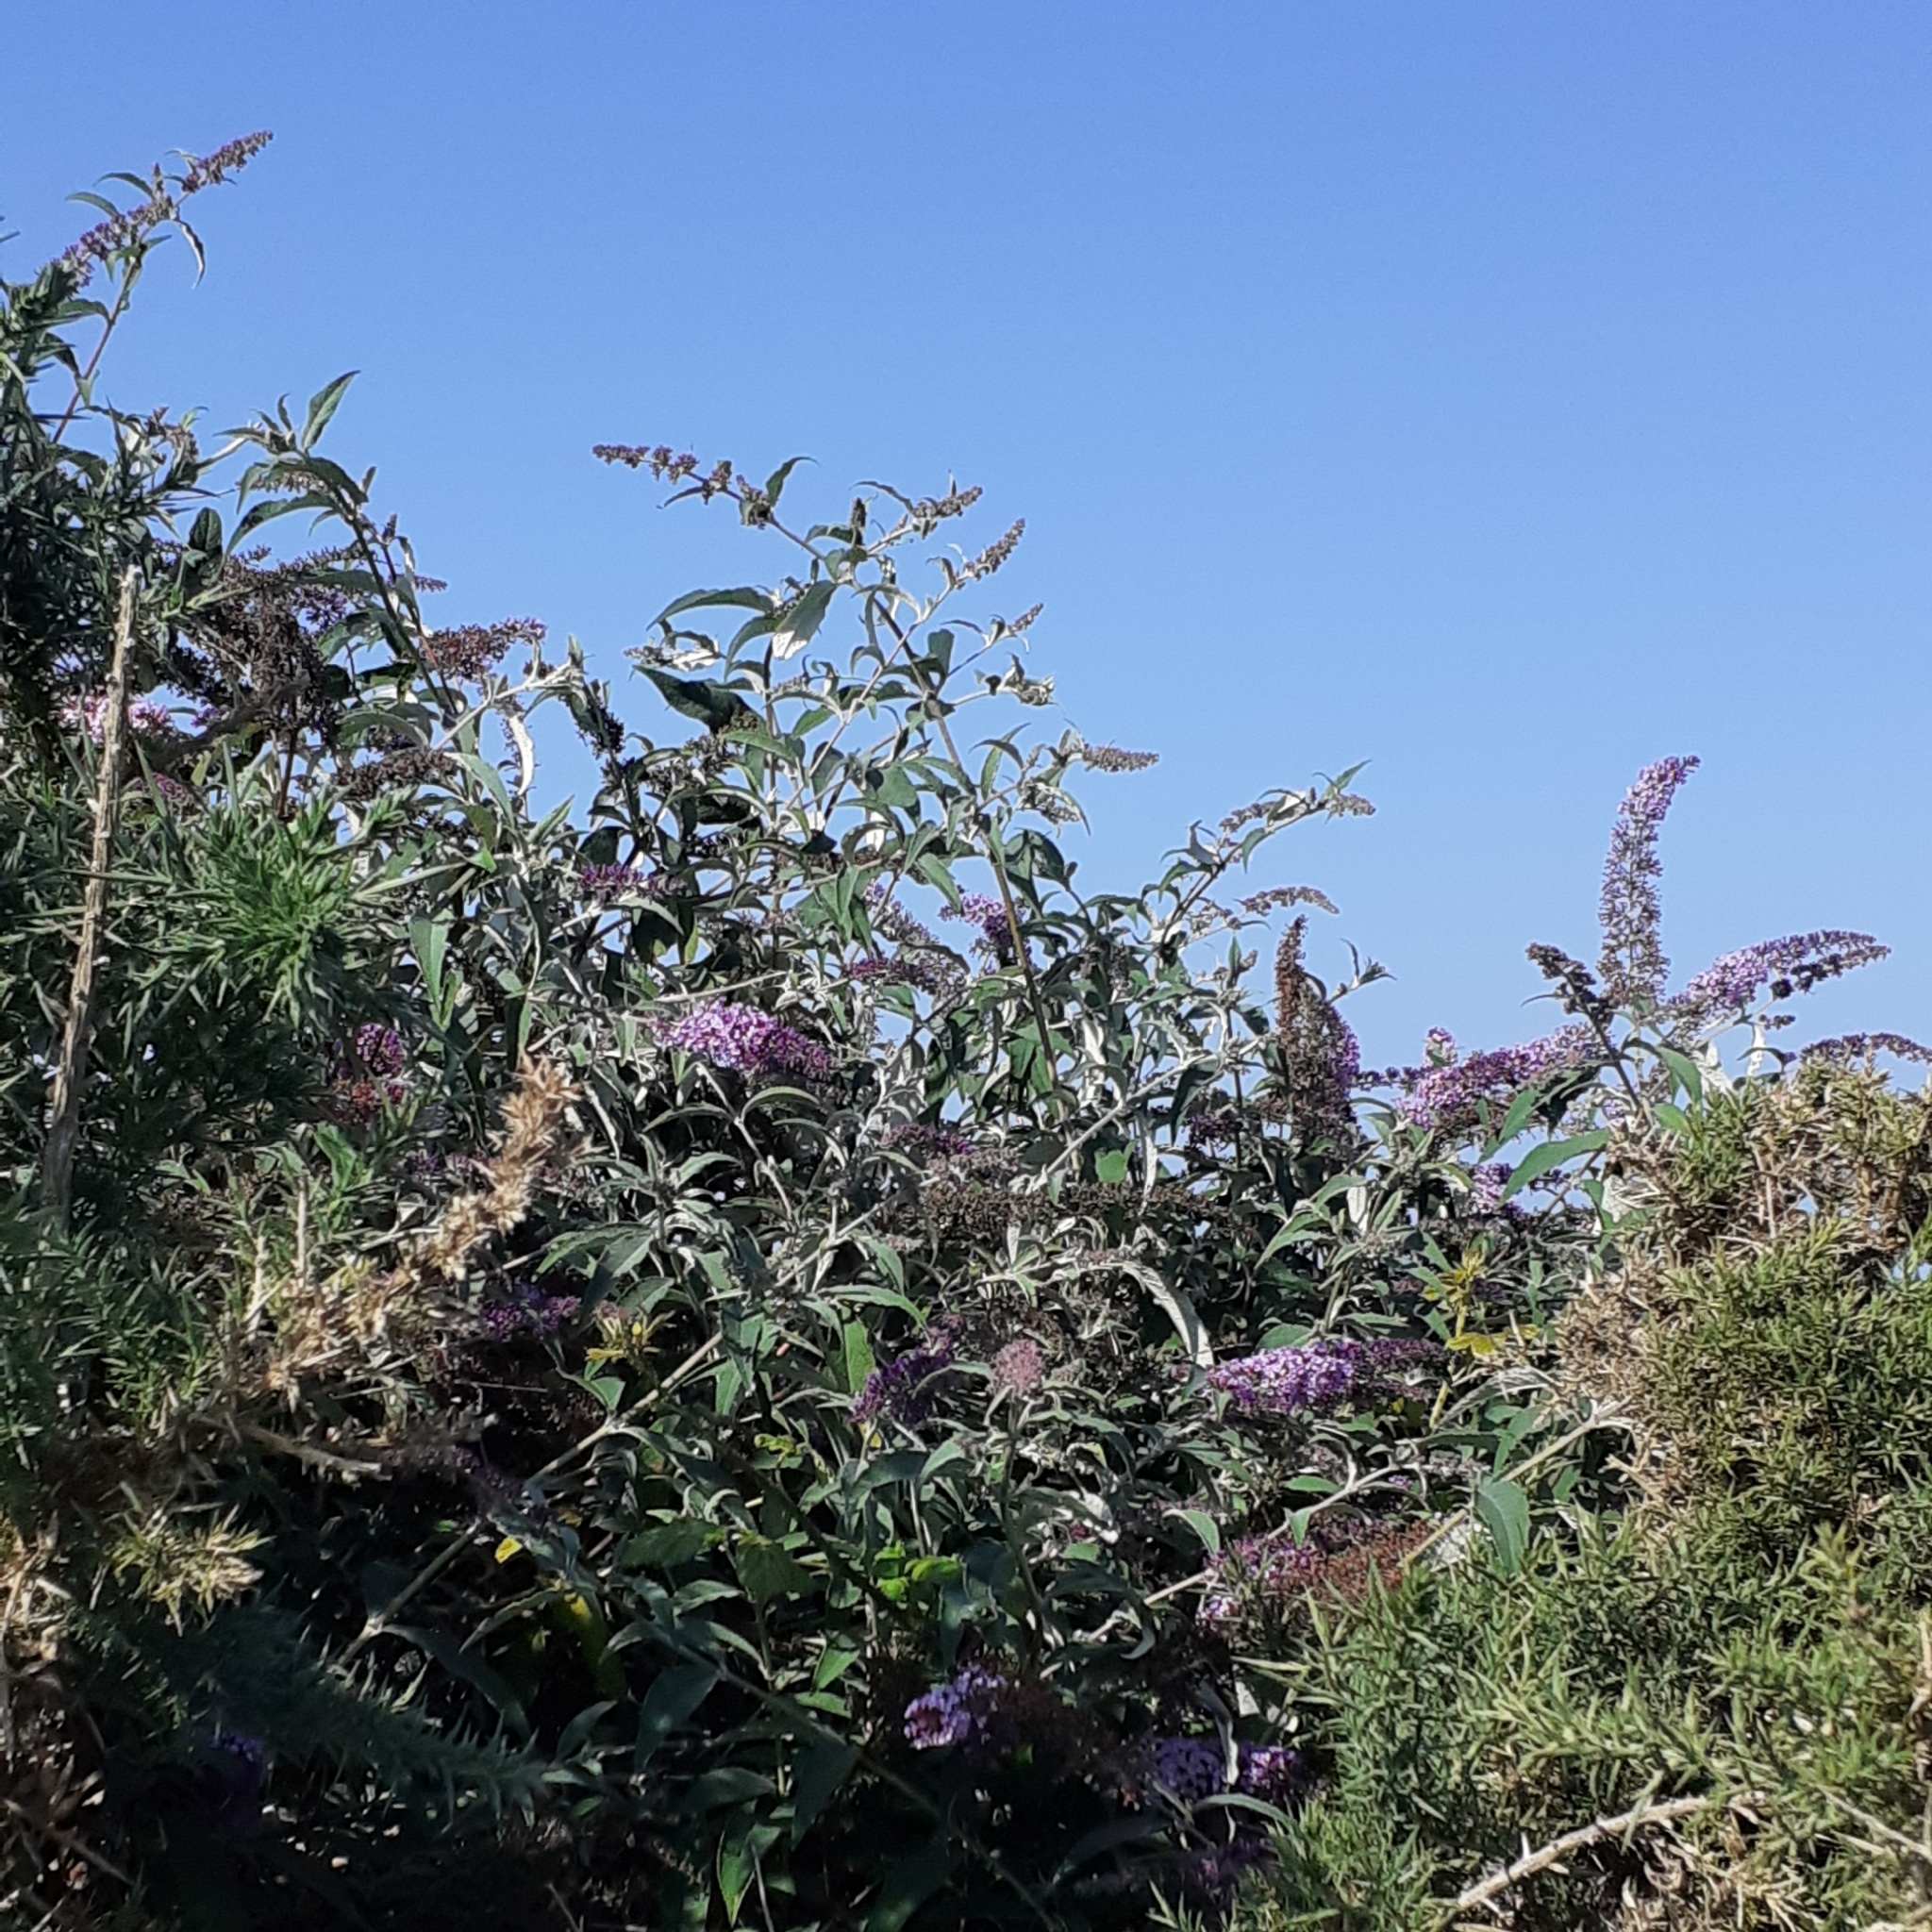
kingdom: Plantae
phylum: Tracheophyta
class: Magnoliopsida
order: Lamiales
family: Scrophulariaceae
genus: Buddleja
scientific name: Buddleja davidii
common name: Butterfly-bush
